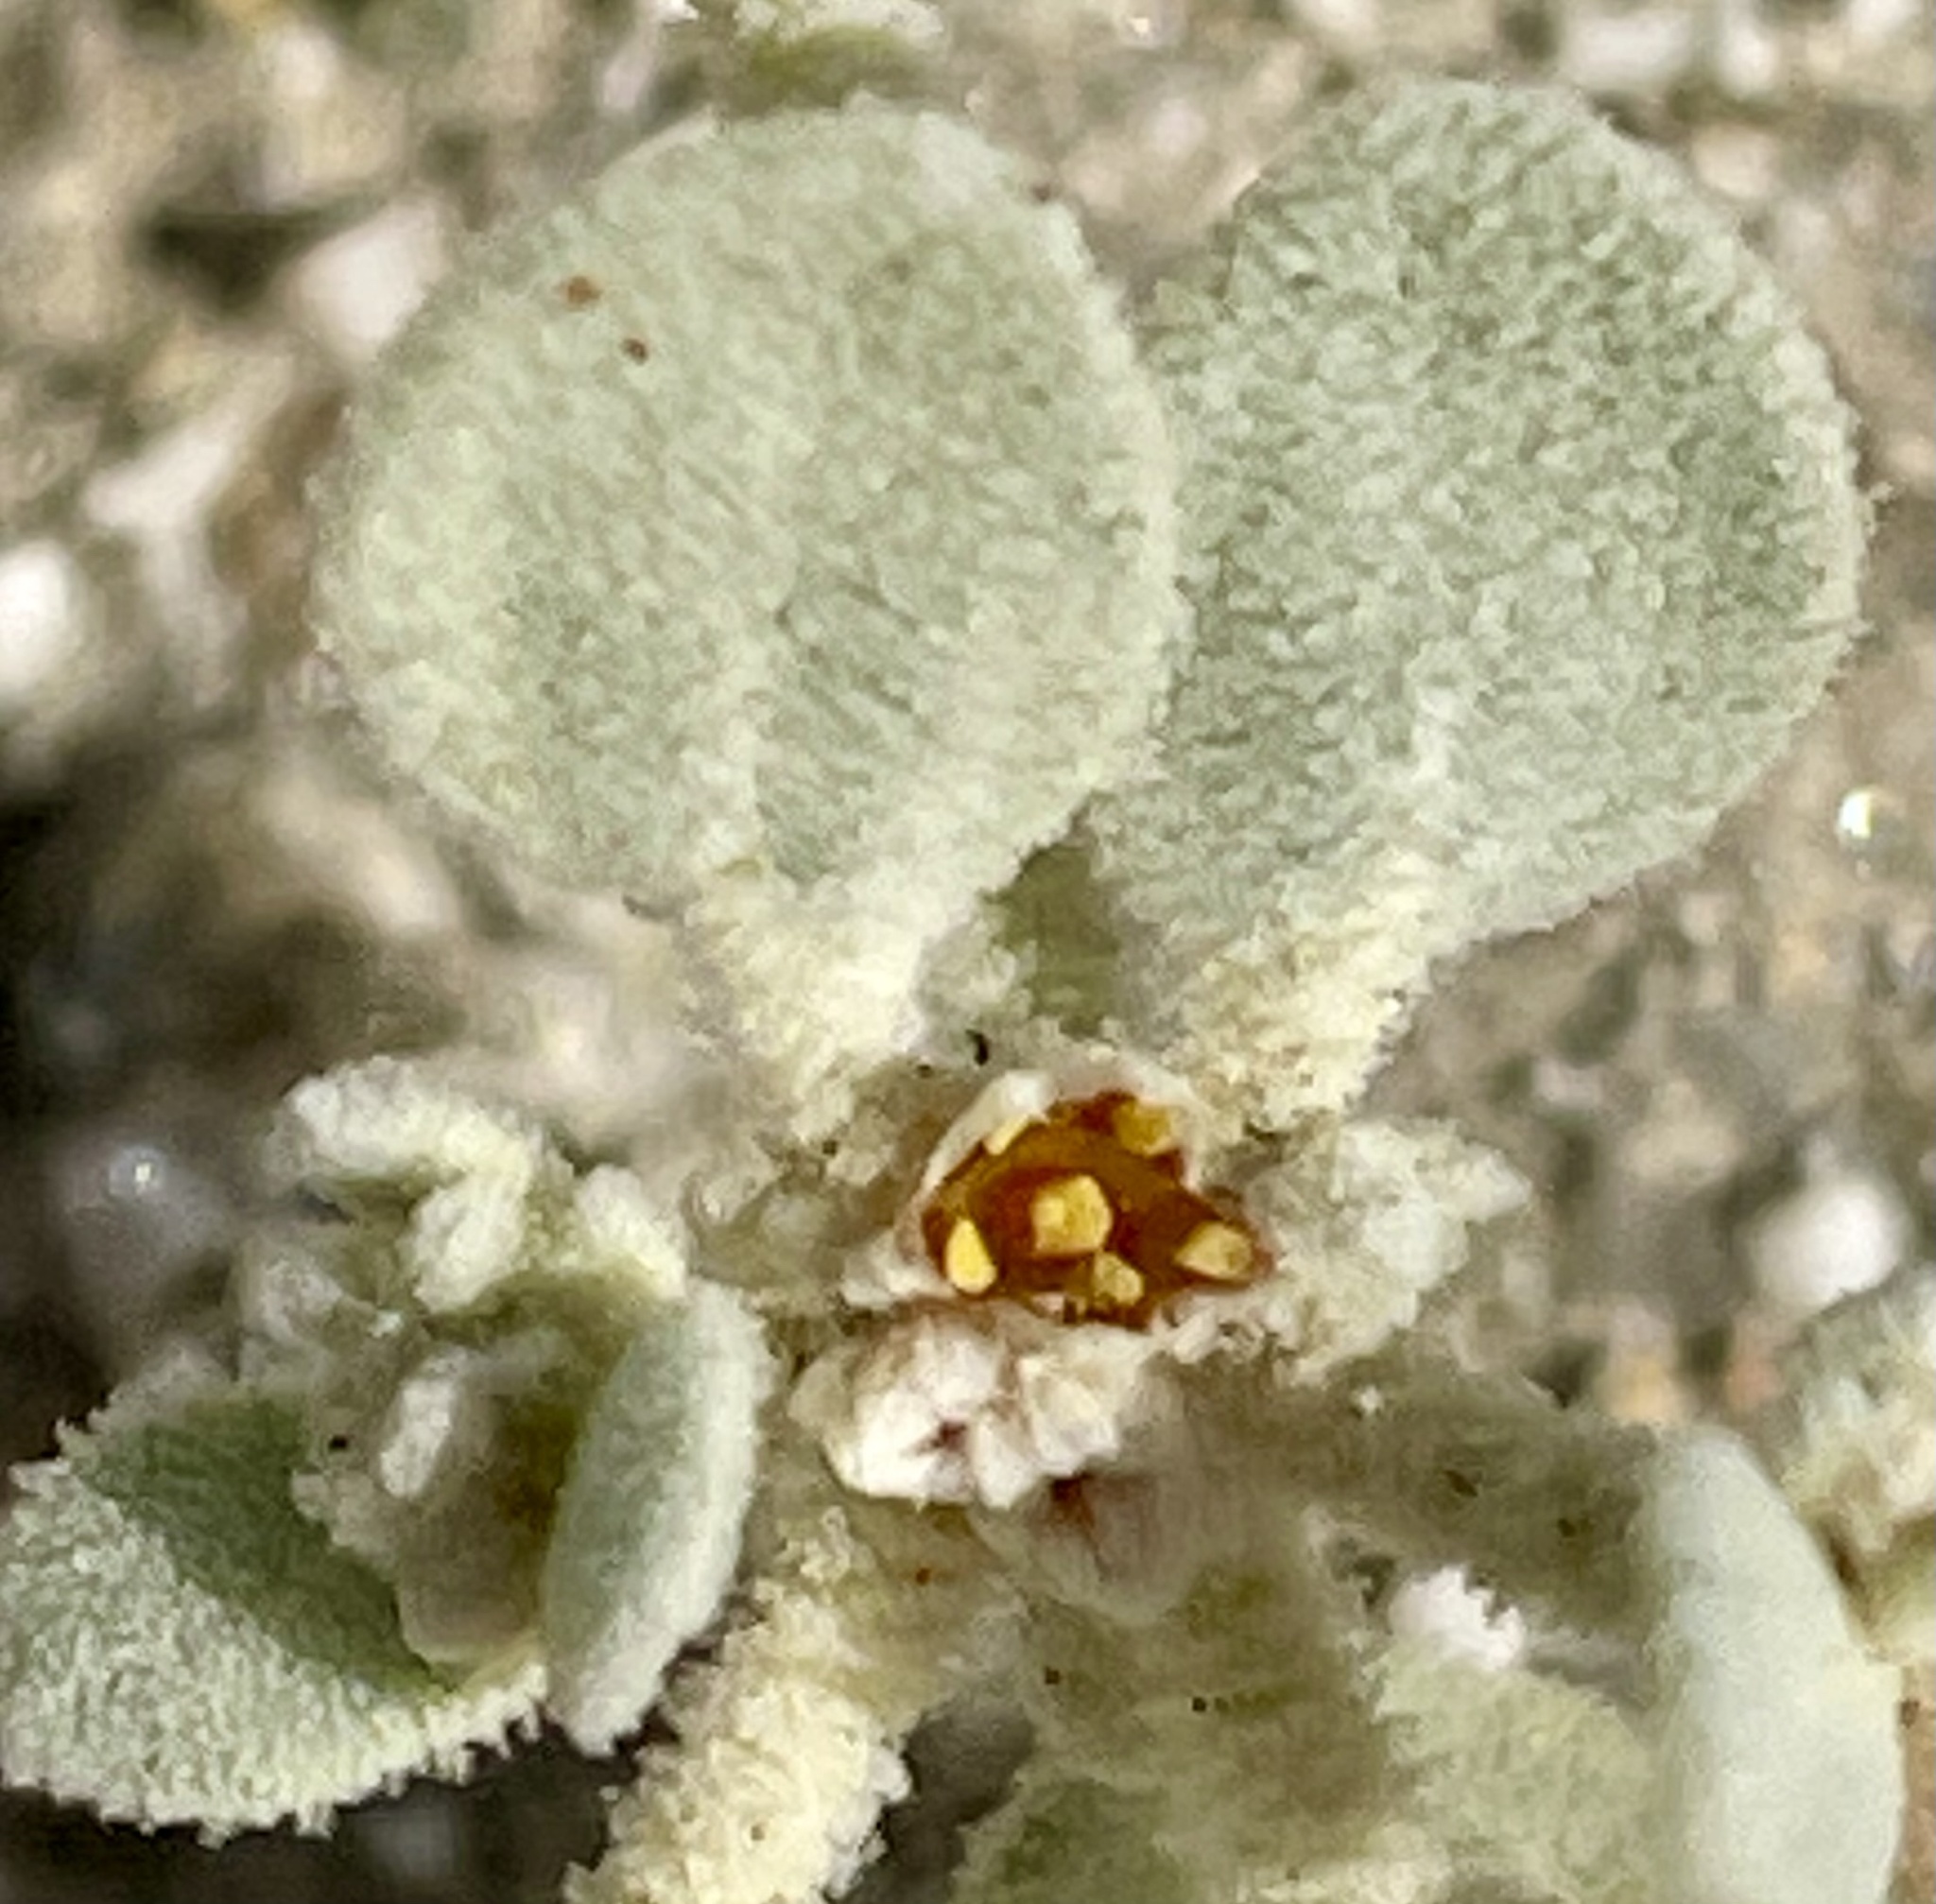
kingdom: Plantae
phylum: Tracheophyta
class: Magnoliopsida
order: Caryophyllales
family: Amaranthaceae
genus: Tidestromia
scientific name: Tidestromia suffruticosa
